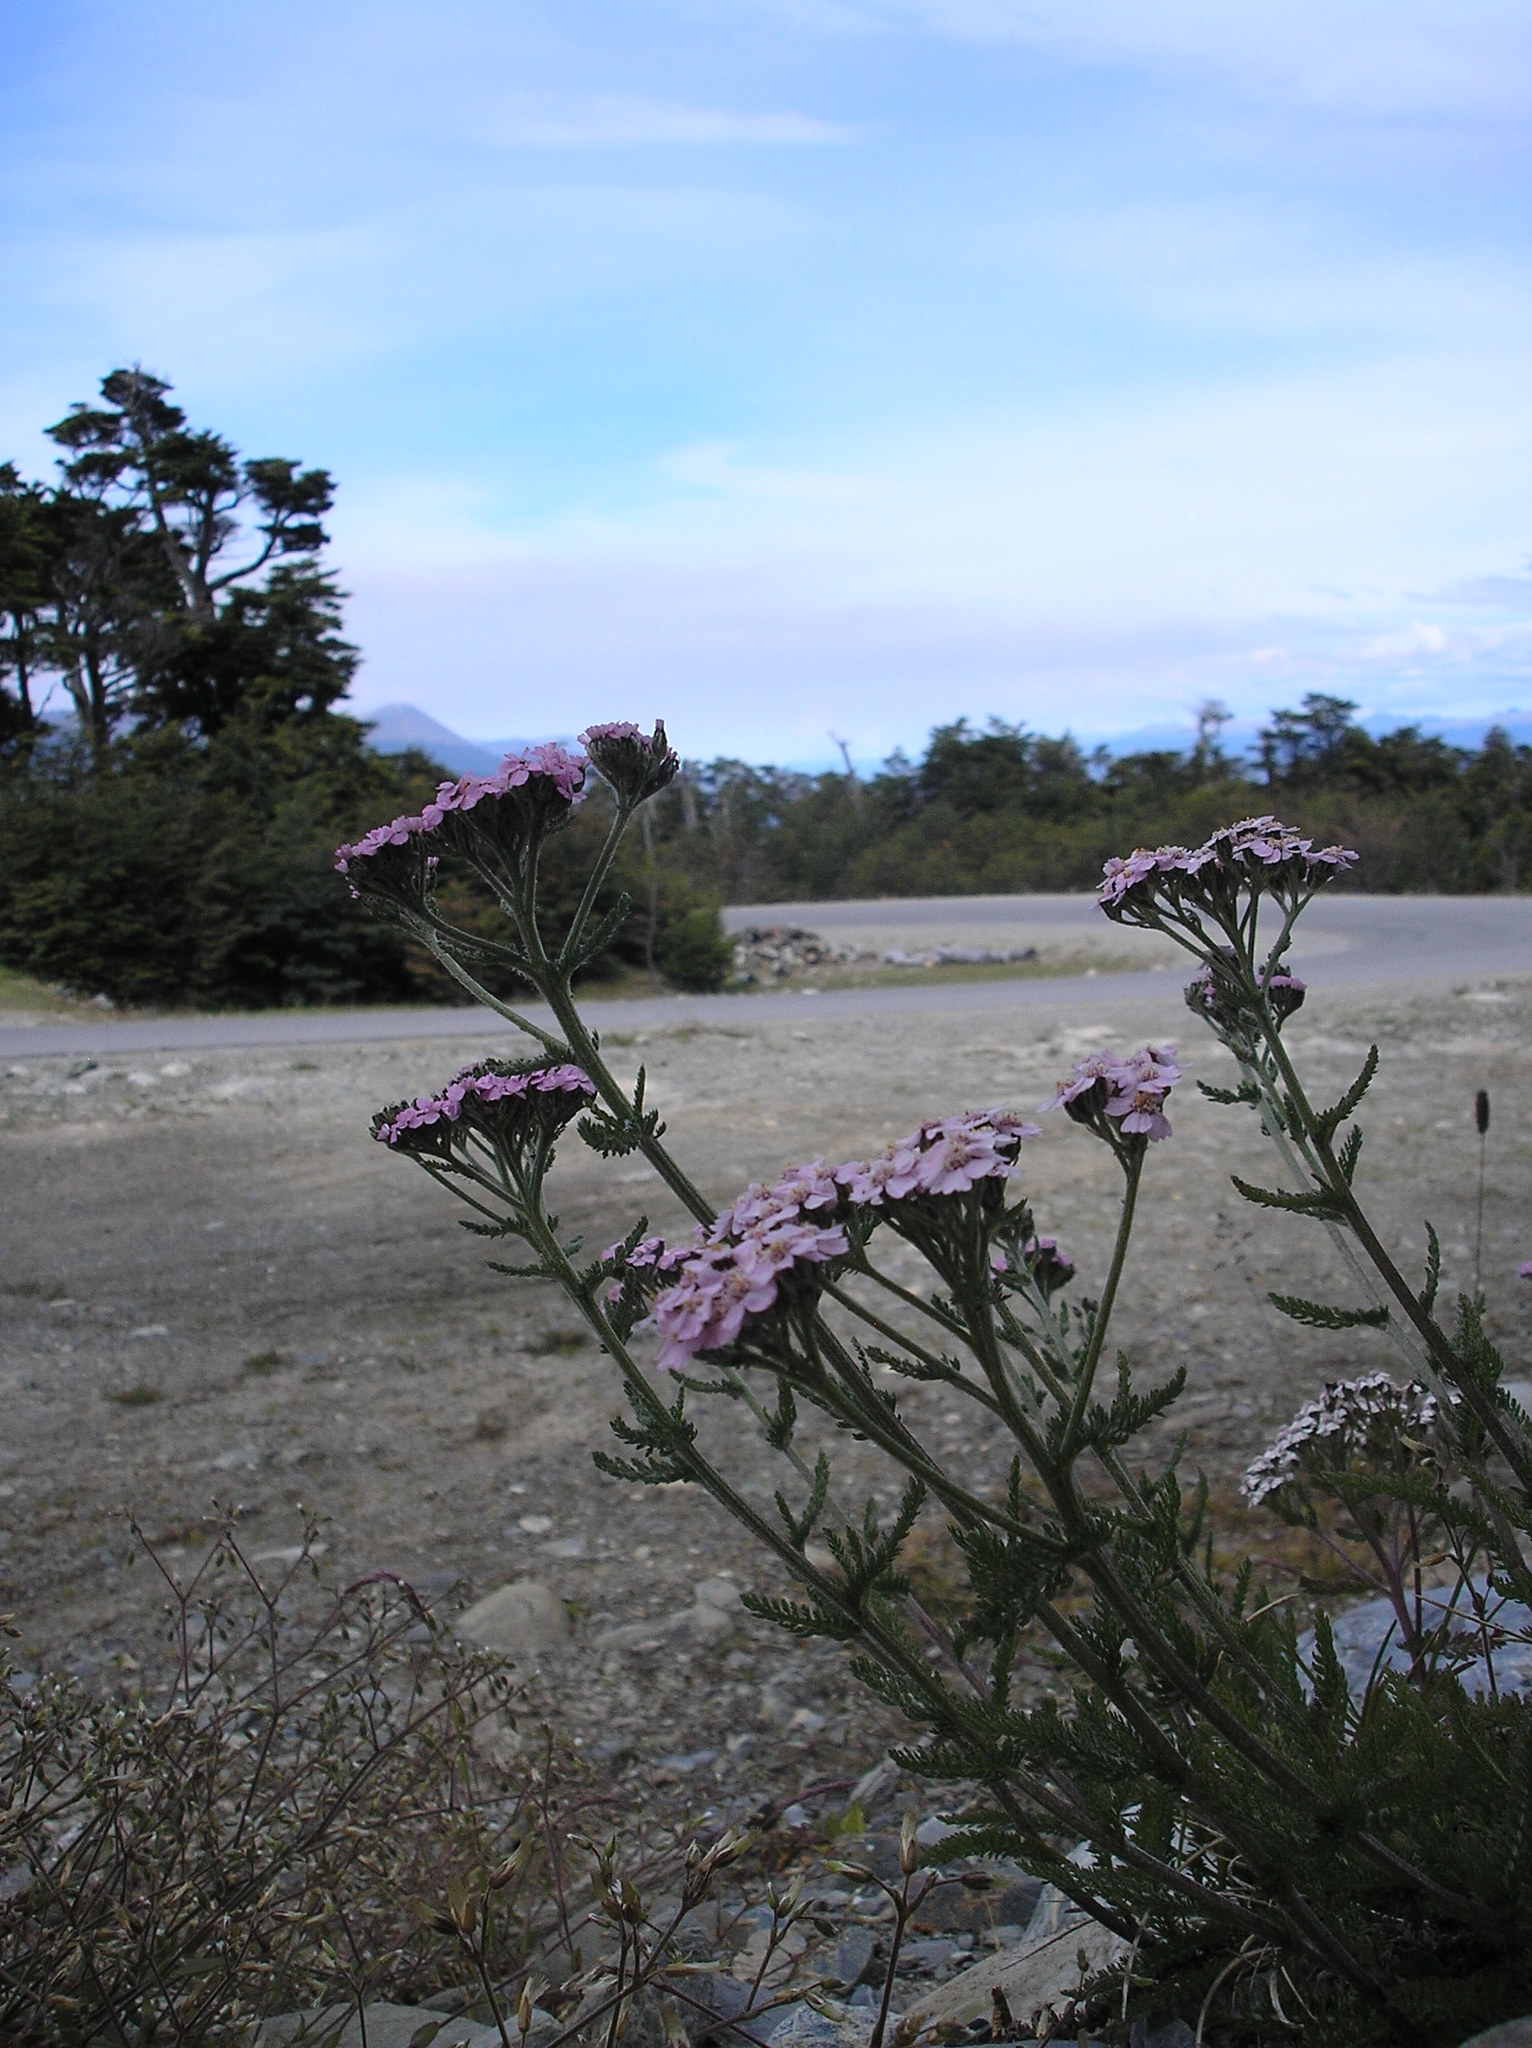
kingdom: Plantae
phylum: Tracheophyta
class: Magnoliopsida
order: Asterales
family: Asteraceae
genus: Achillea
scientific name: Achillea millefolium
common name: Yarrow
